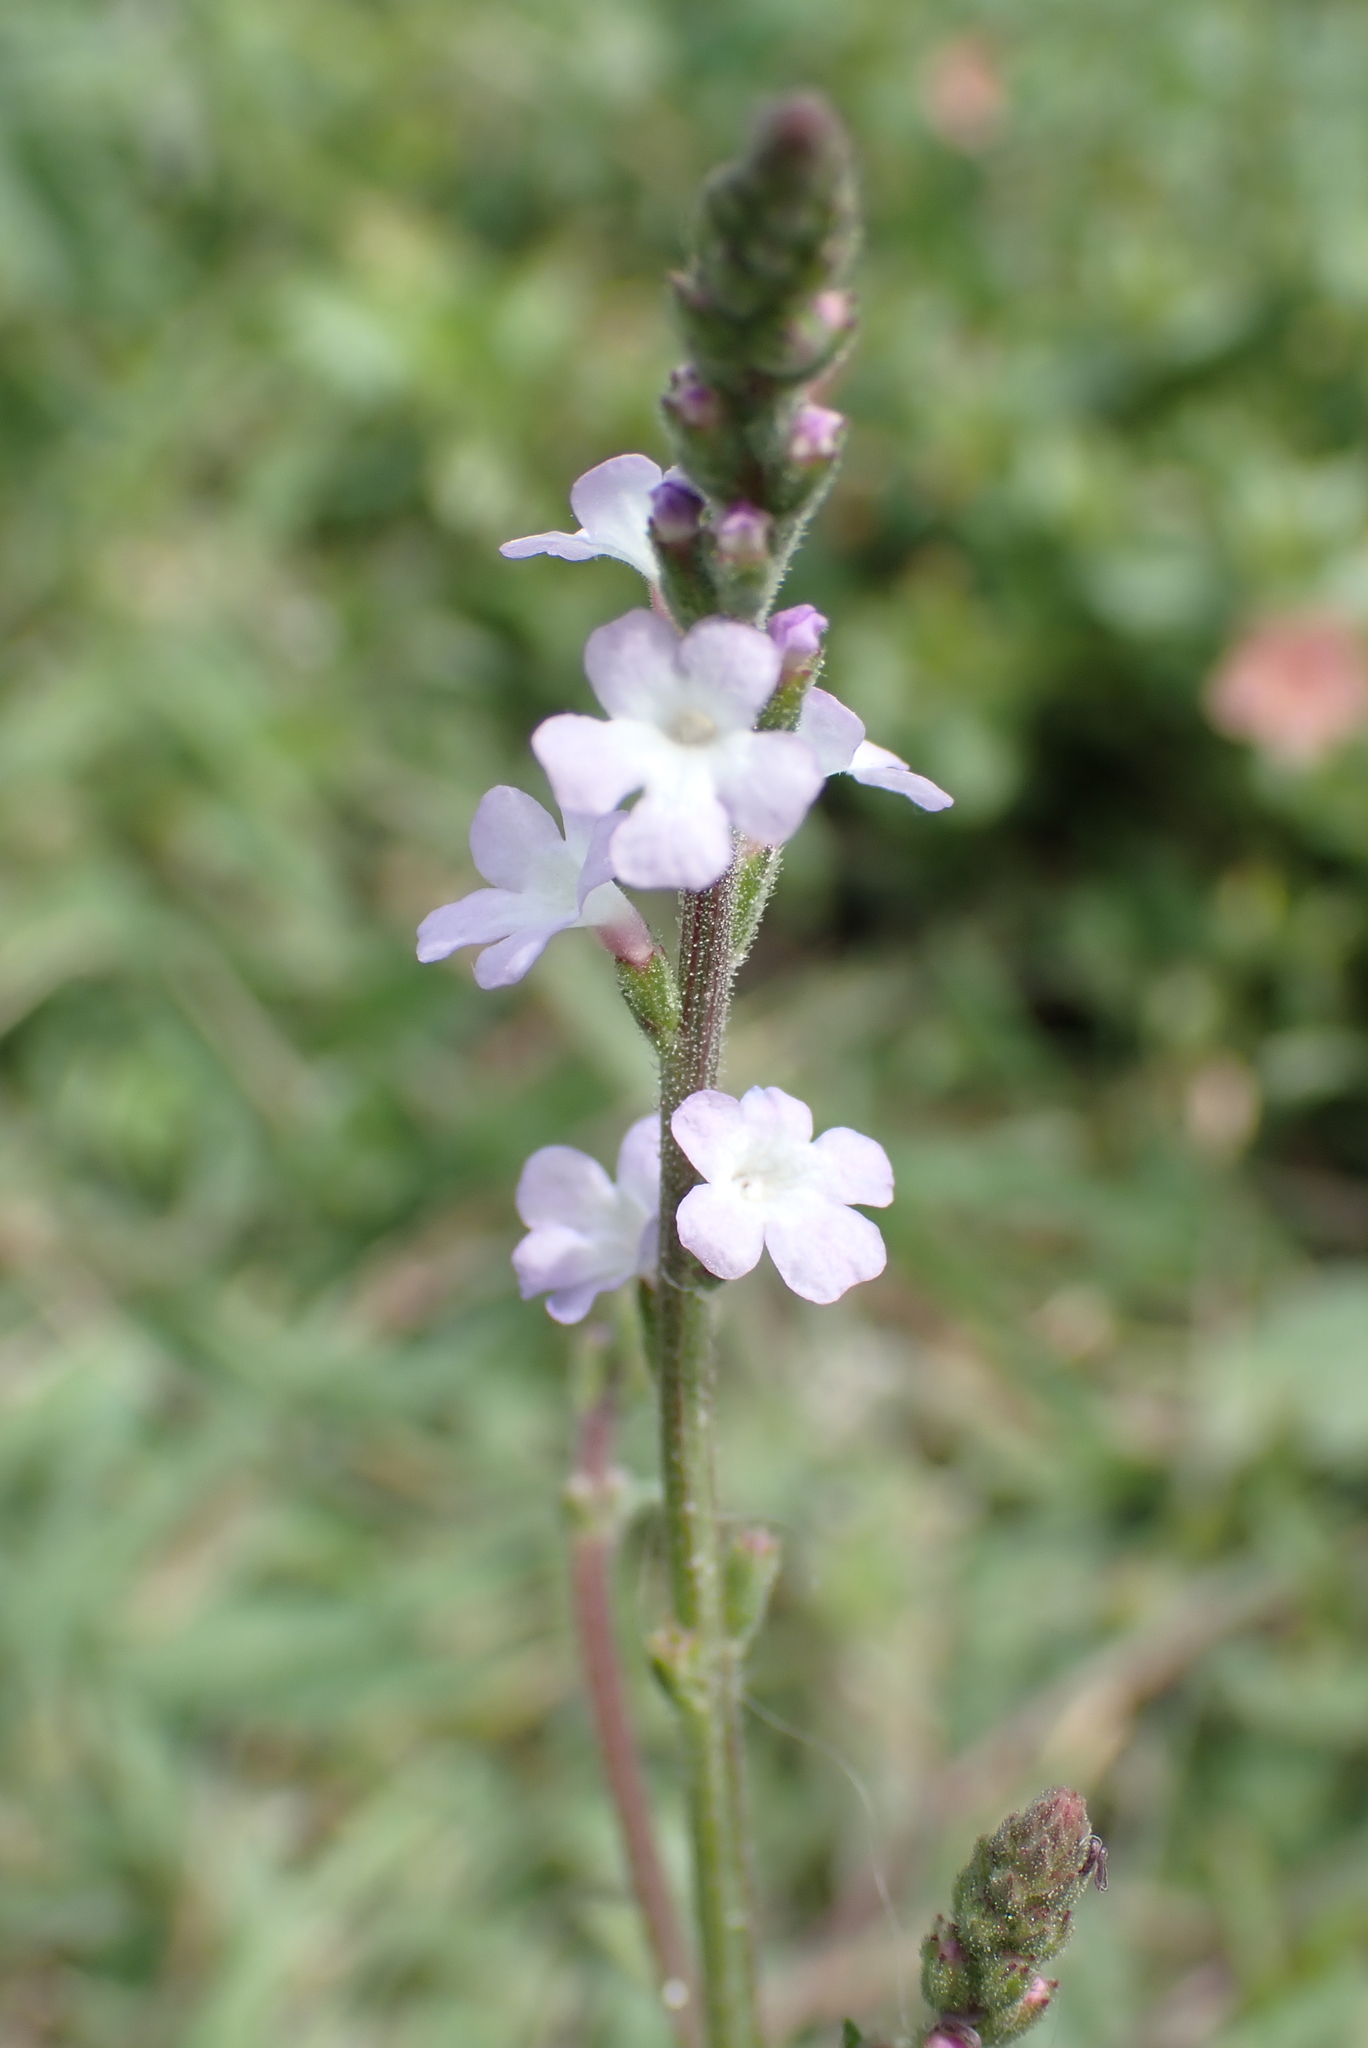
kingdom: Plantae
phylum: Tracheophyta
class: Magnoliopsida
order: Lamiales
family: Verbenaceae
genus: Verbena
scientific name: Verbena officinalis
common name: Vervain
